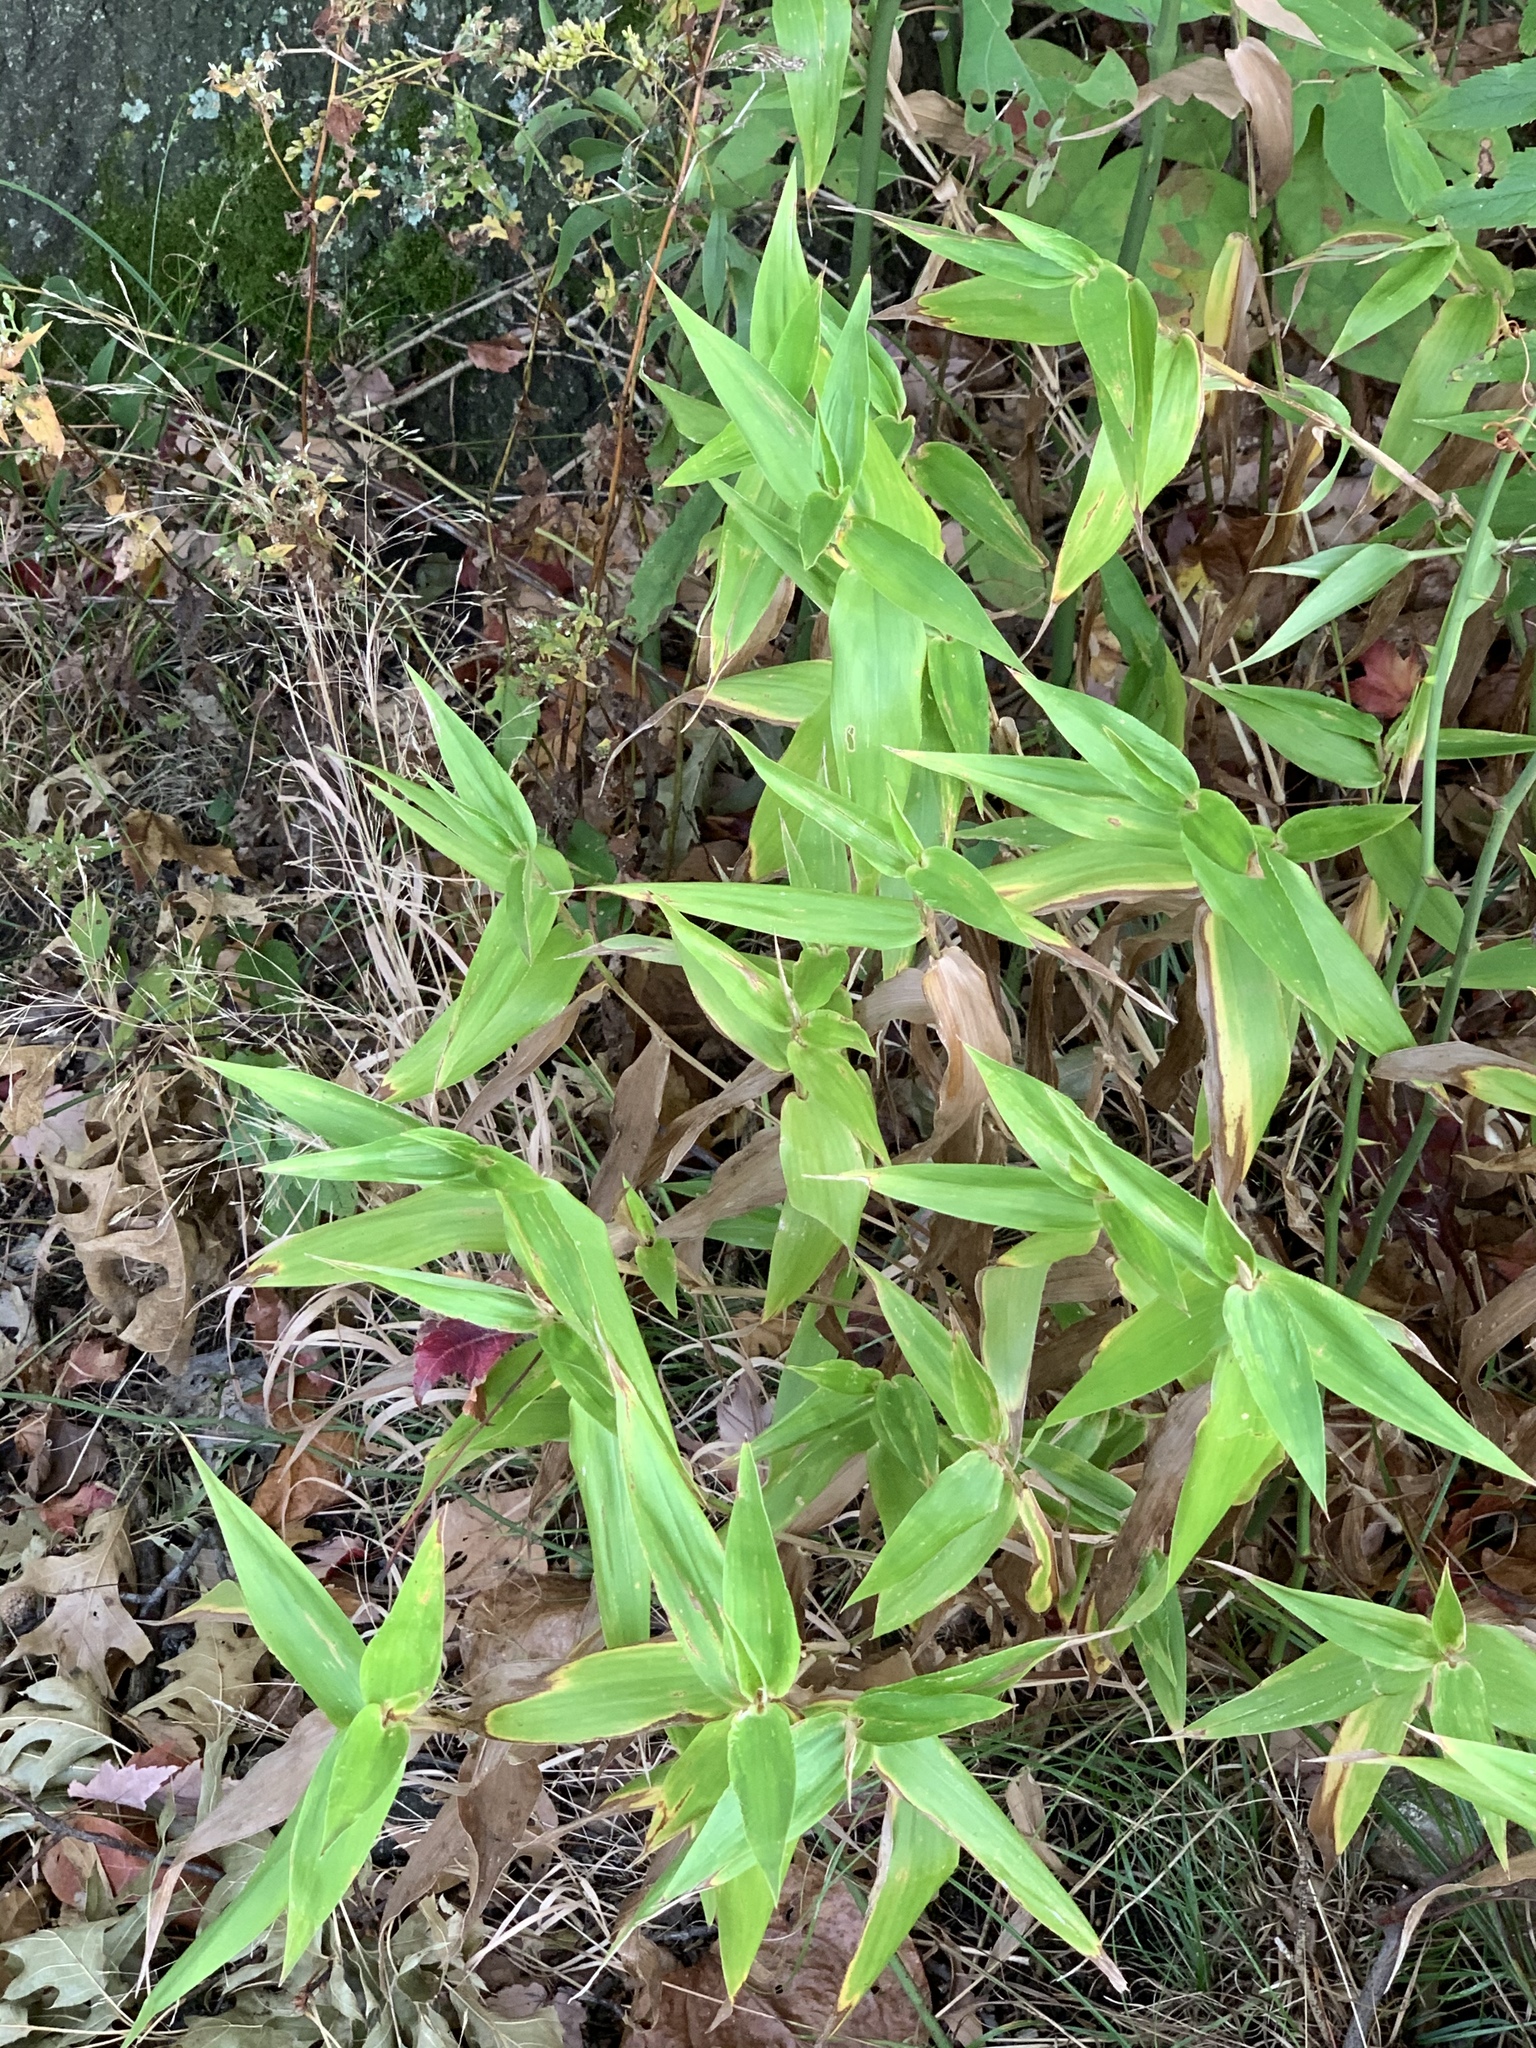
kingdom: Plantae
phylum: Tracheophyta
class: Liliopsida
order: Poales
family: Poaceae
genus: Dichanthelium
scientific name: Dichanthelium clandestinum
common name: Deer-tongue grass
